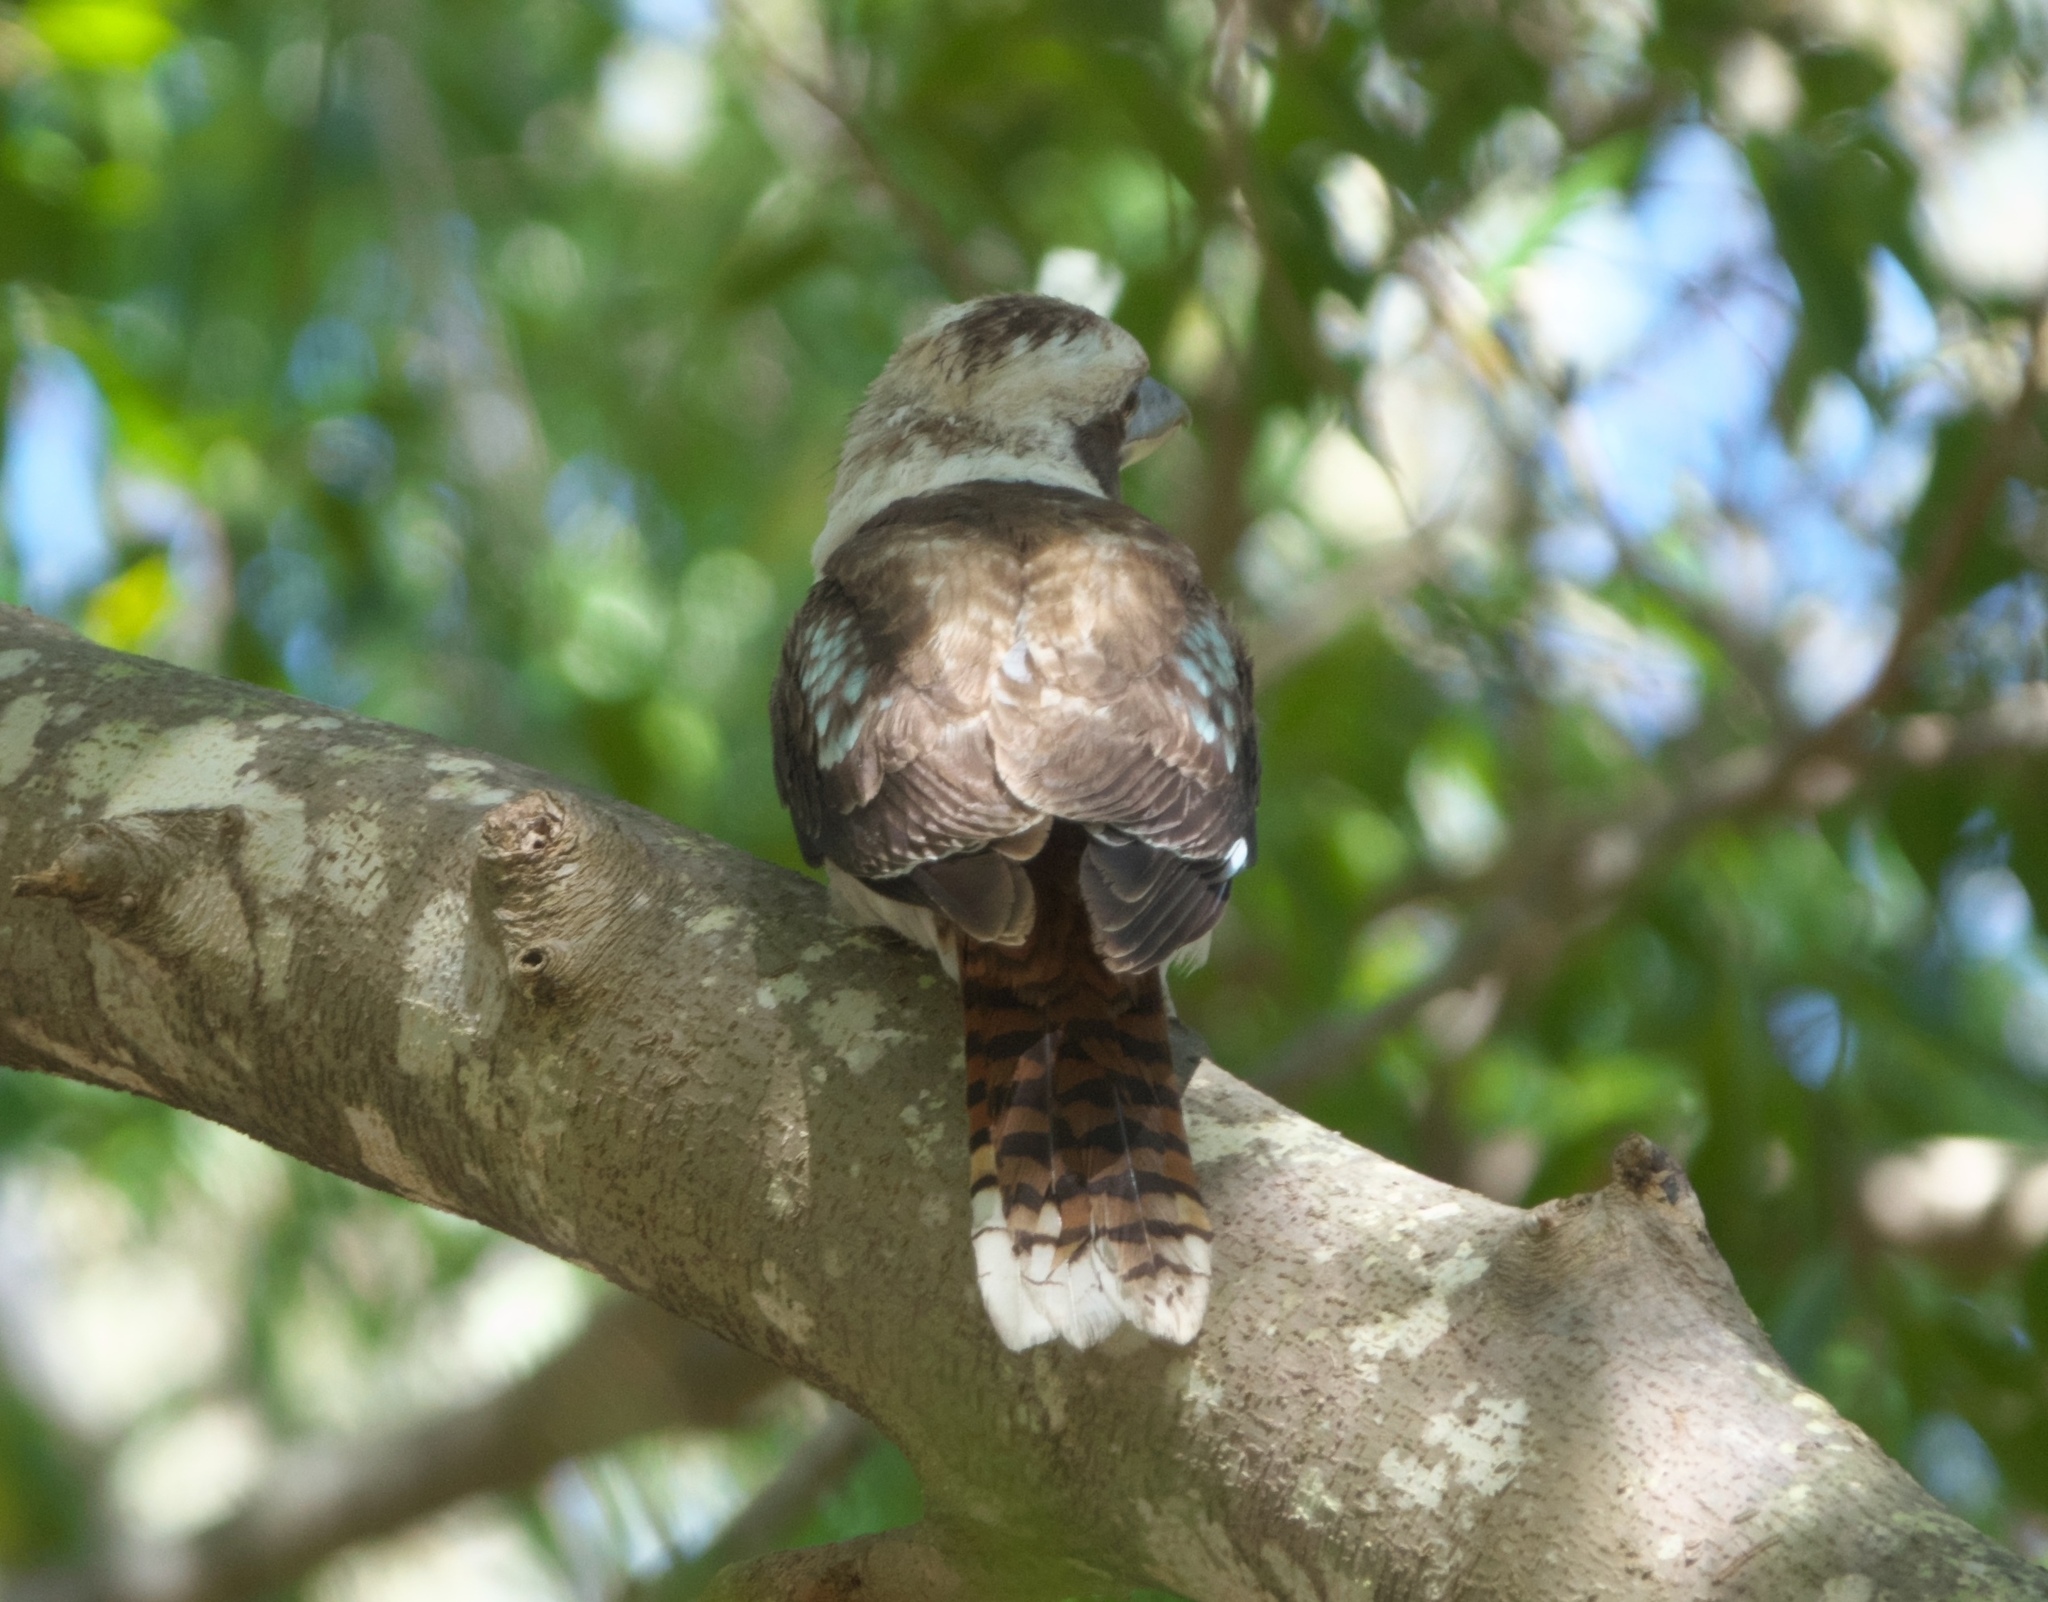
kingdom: Animalia
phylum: Chordata
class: Aves
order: Coraciiformes
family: Alcedinidae
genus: Dacelo
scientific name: Dacelo novaeguineae
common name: Laughing kookaburra
